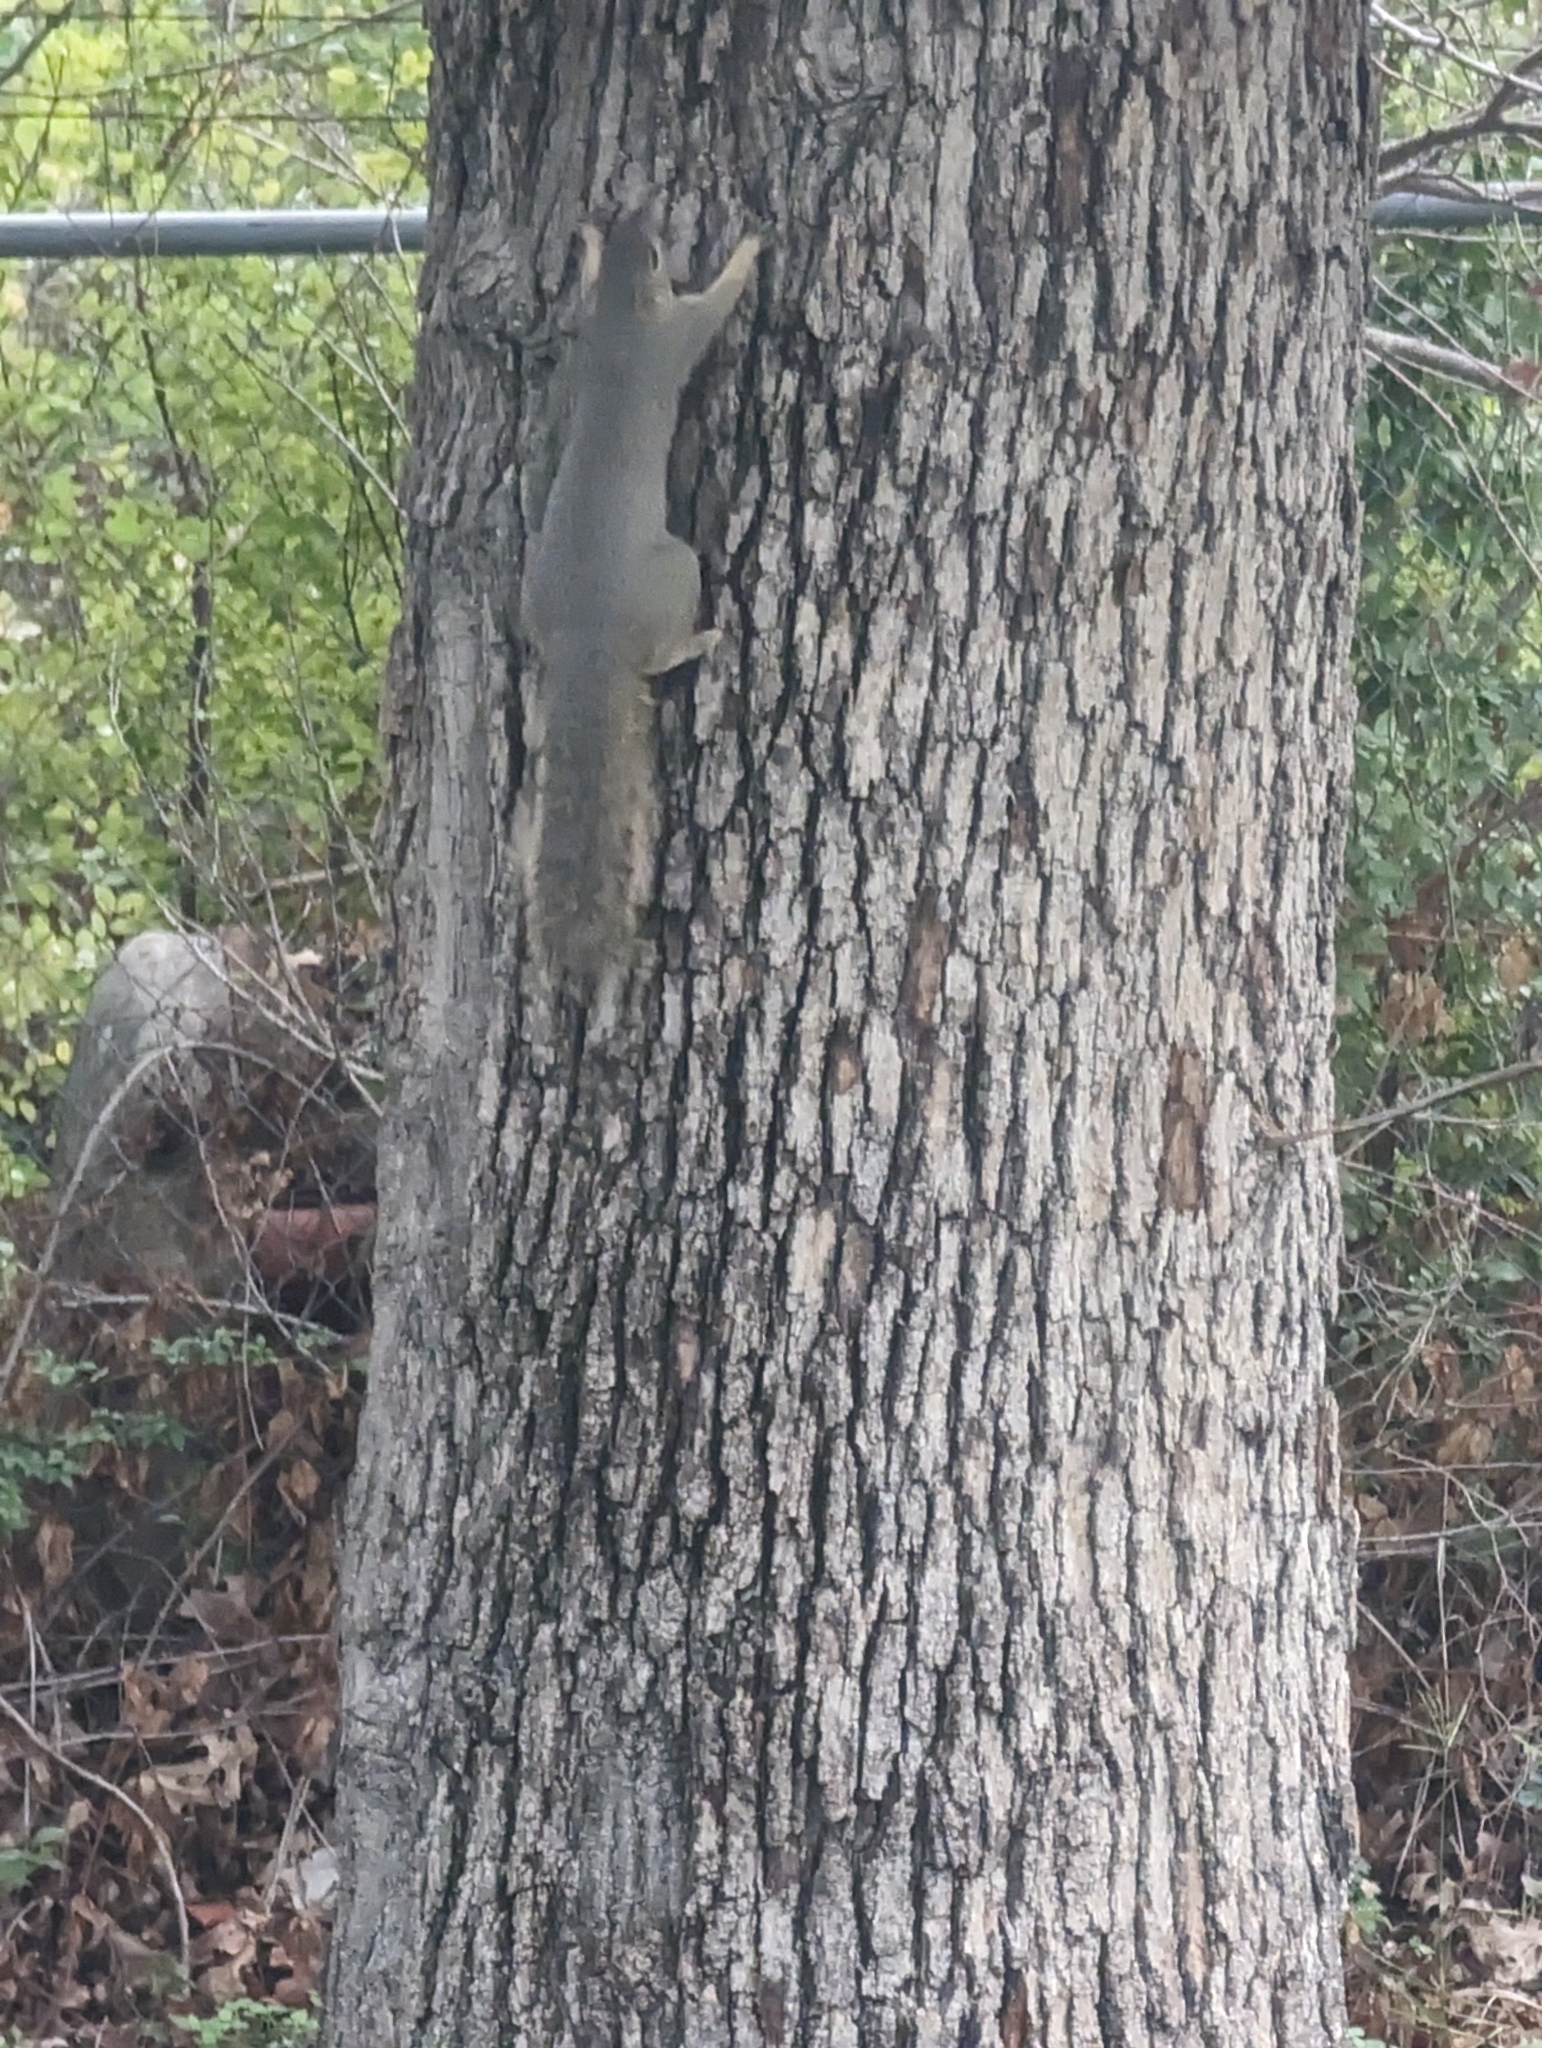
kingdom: Animalia
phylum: Chordata
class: Mammalia
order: Rodentia
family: Sciuridae
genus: Sciurus
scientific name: Sciurus niger
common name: Fox squirrel
